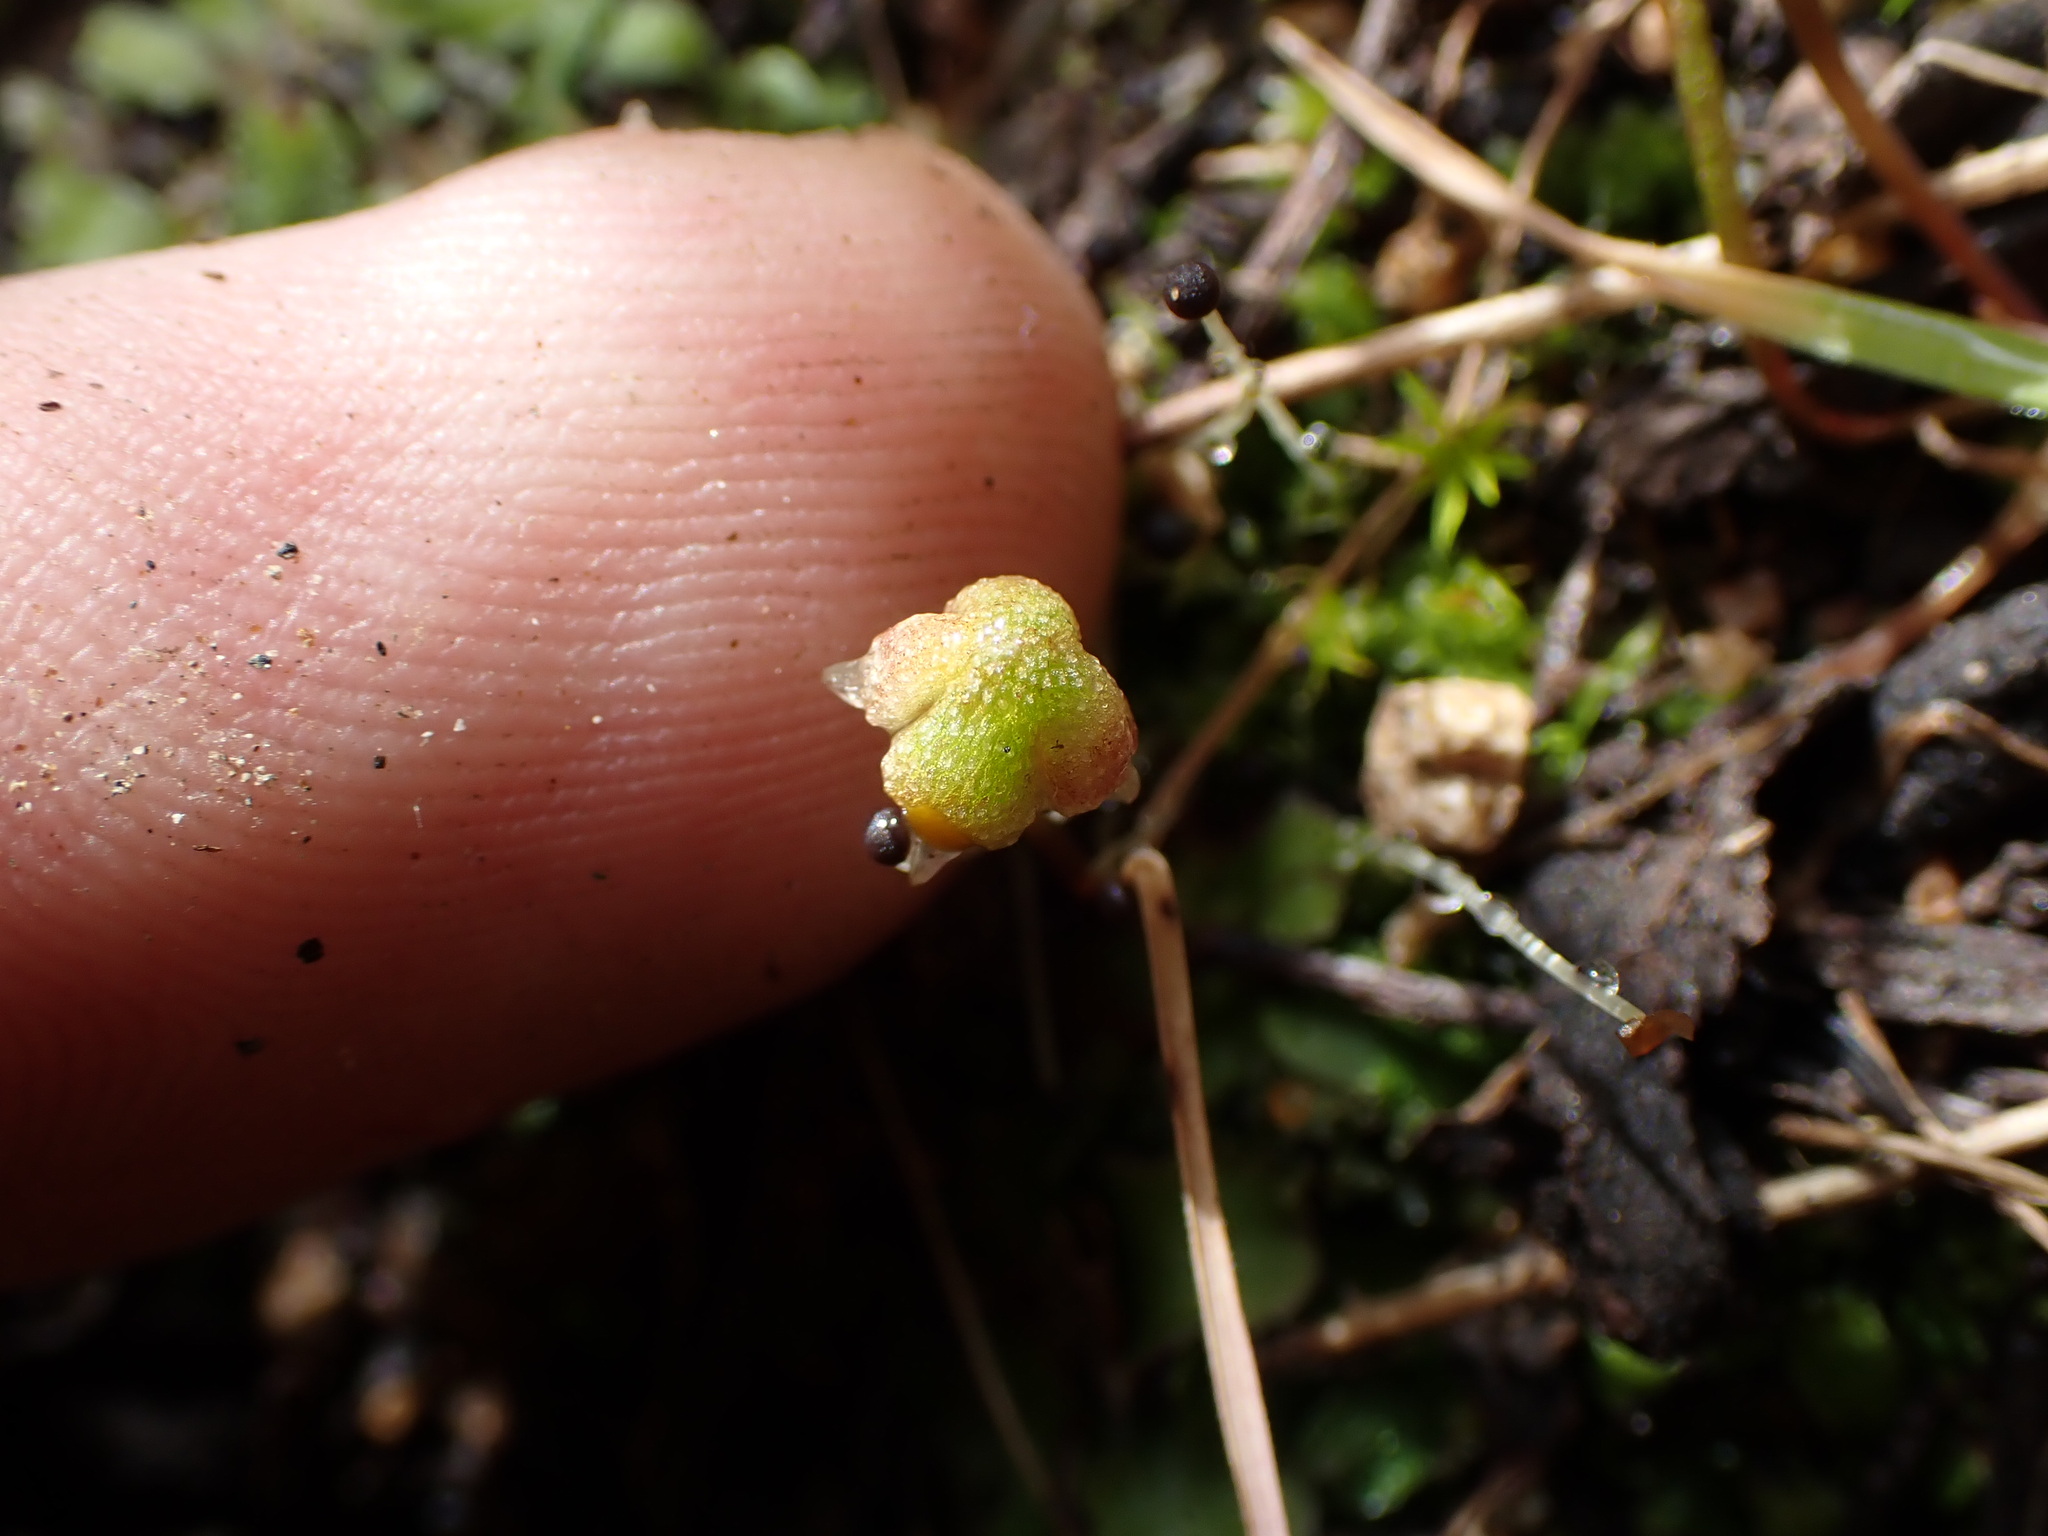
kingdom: Plantae
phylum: Marchantiophyta
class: Marchantiopsida
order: Marchantiales
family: Aytoniaceae
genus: Asterella
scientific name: Asterella californica
